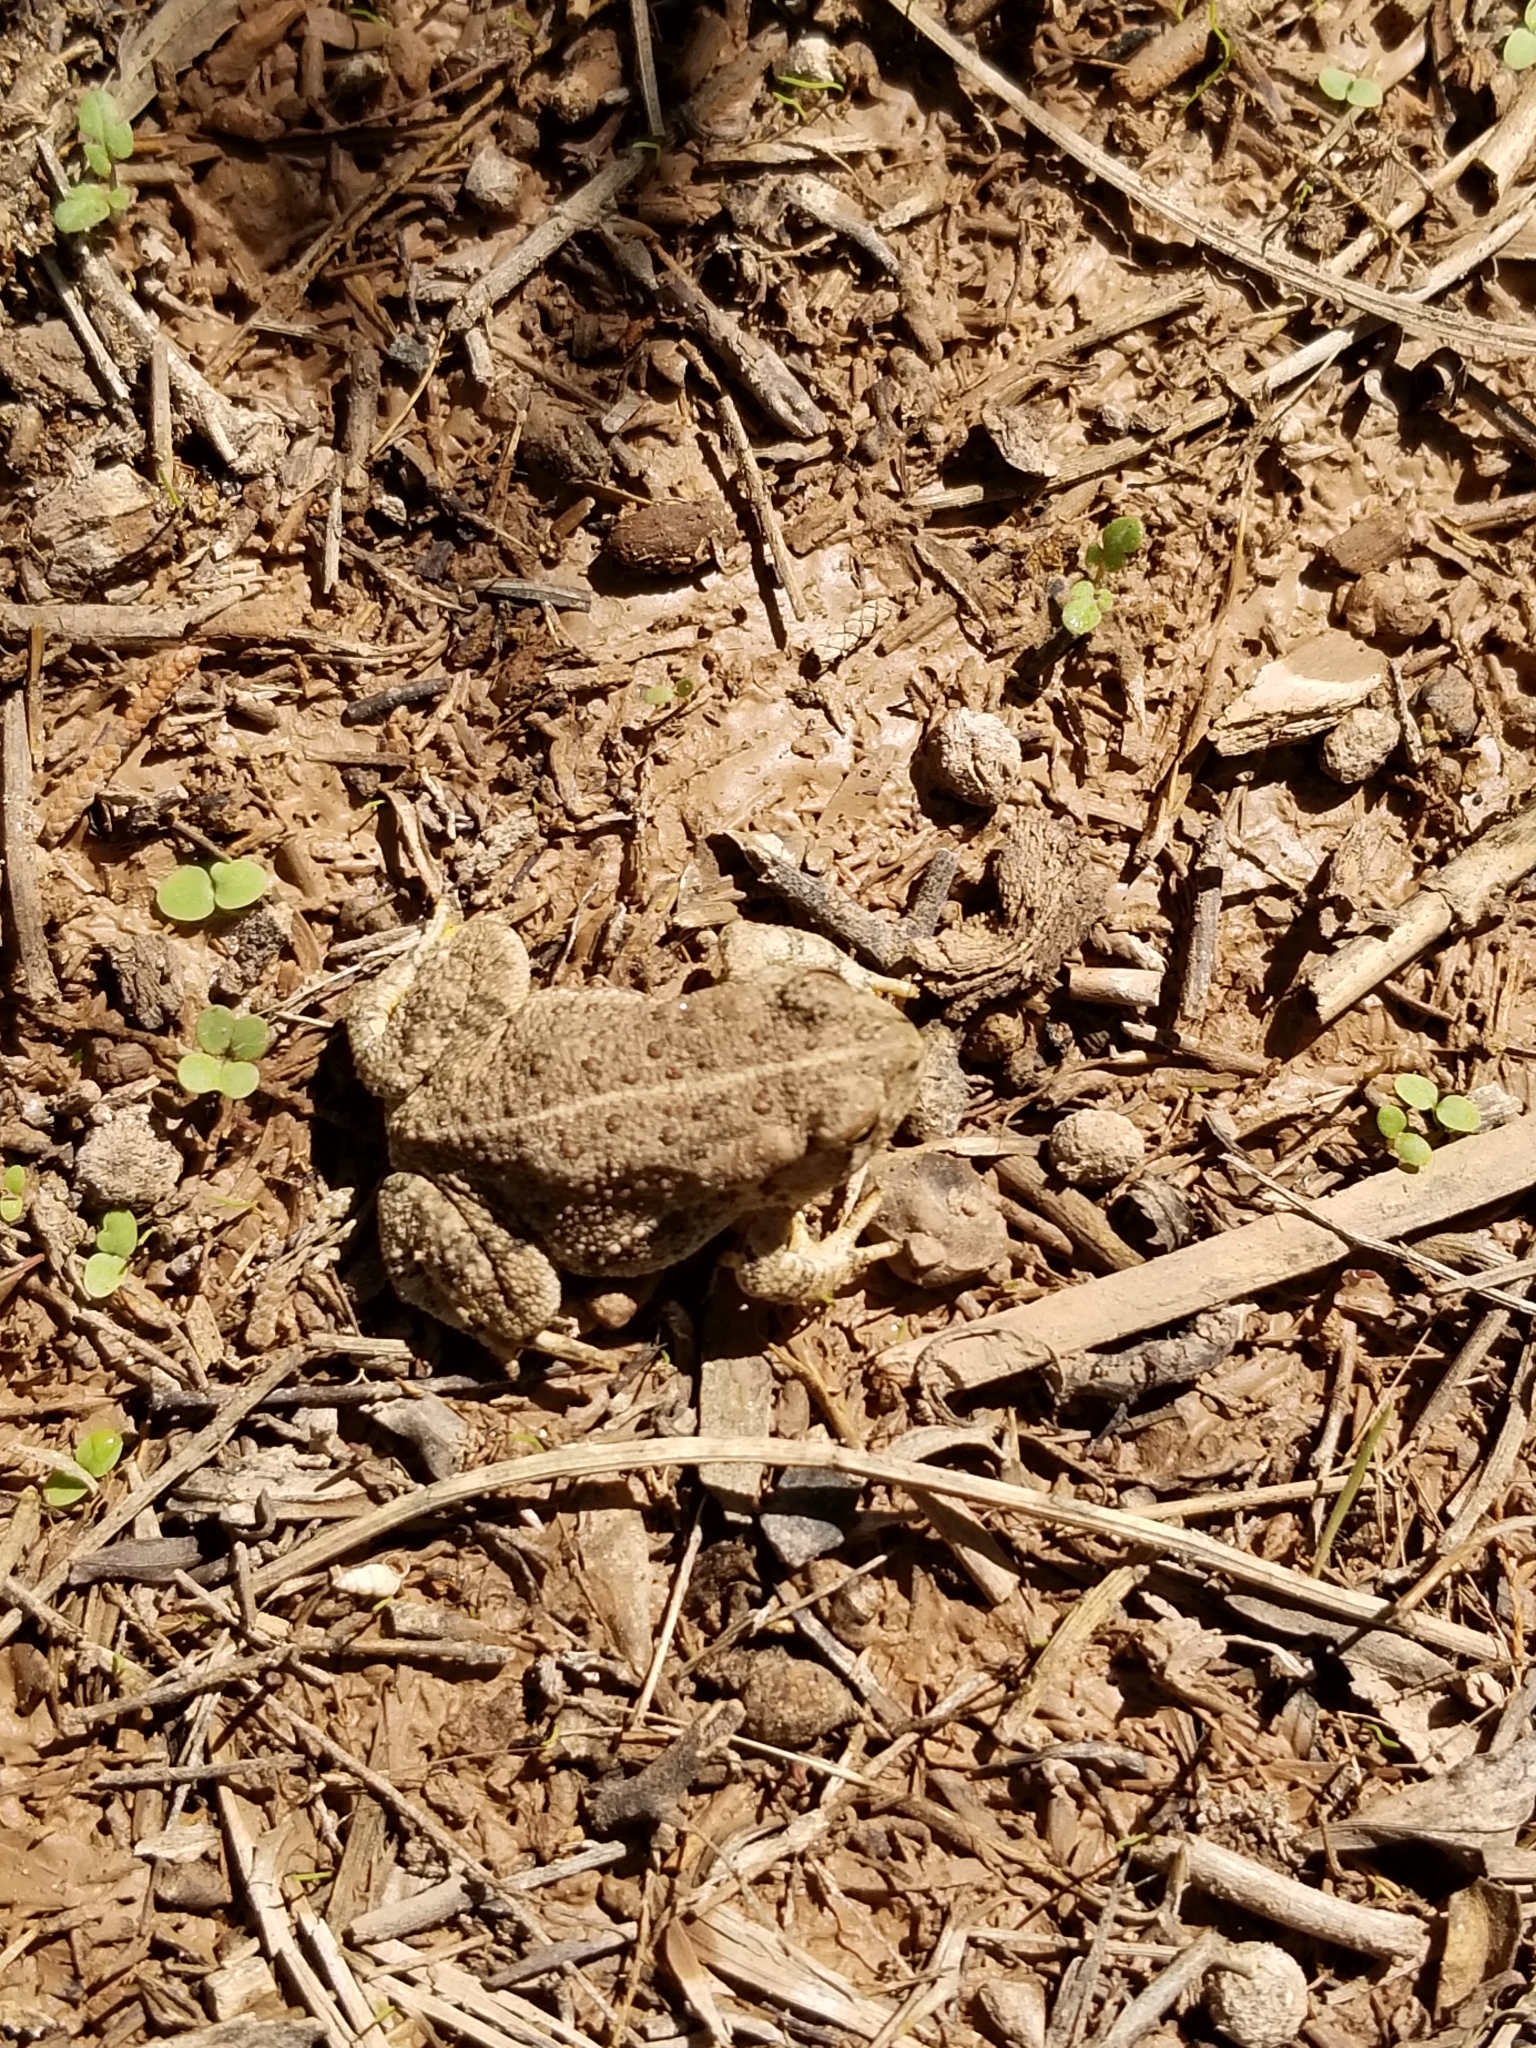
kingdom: Animalia
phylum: Chordata
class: Amphibia
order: Anura
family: Bufonidae
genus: Anaxyrus
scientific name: Anaxyrus woodhousii
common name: Woodhouse's toad
